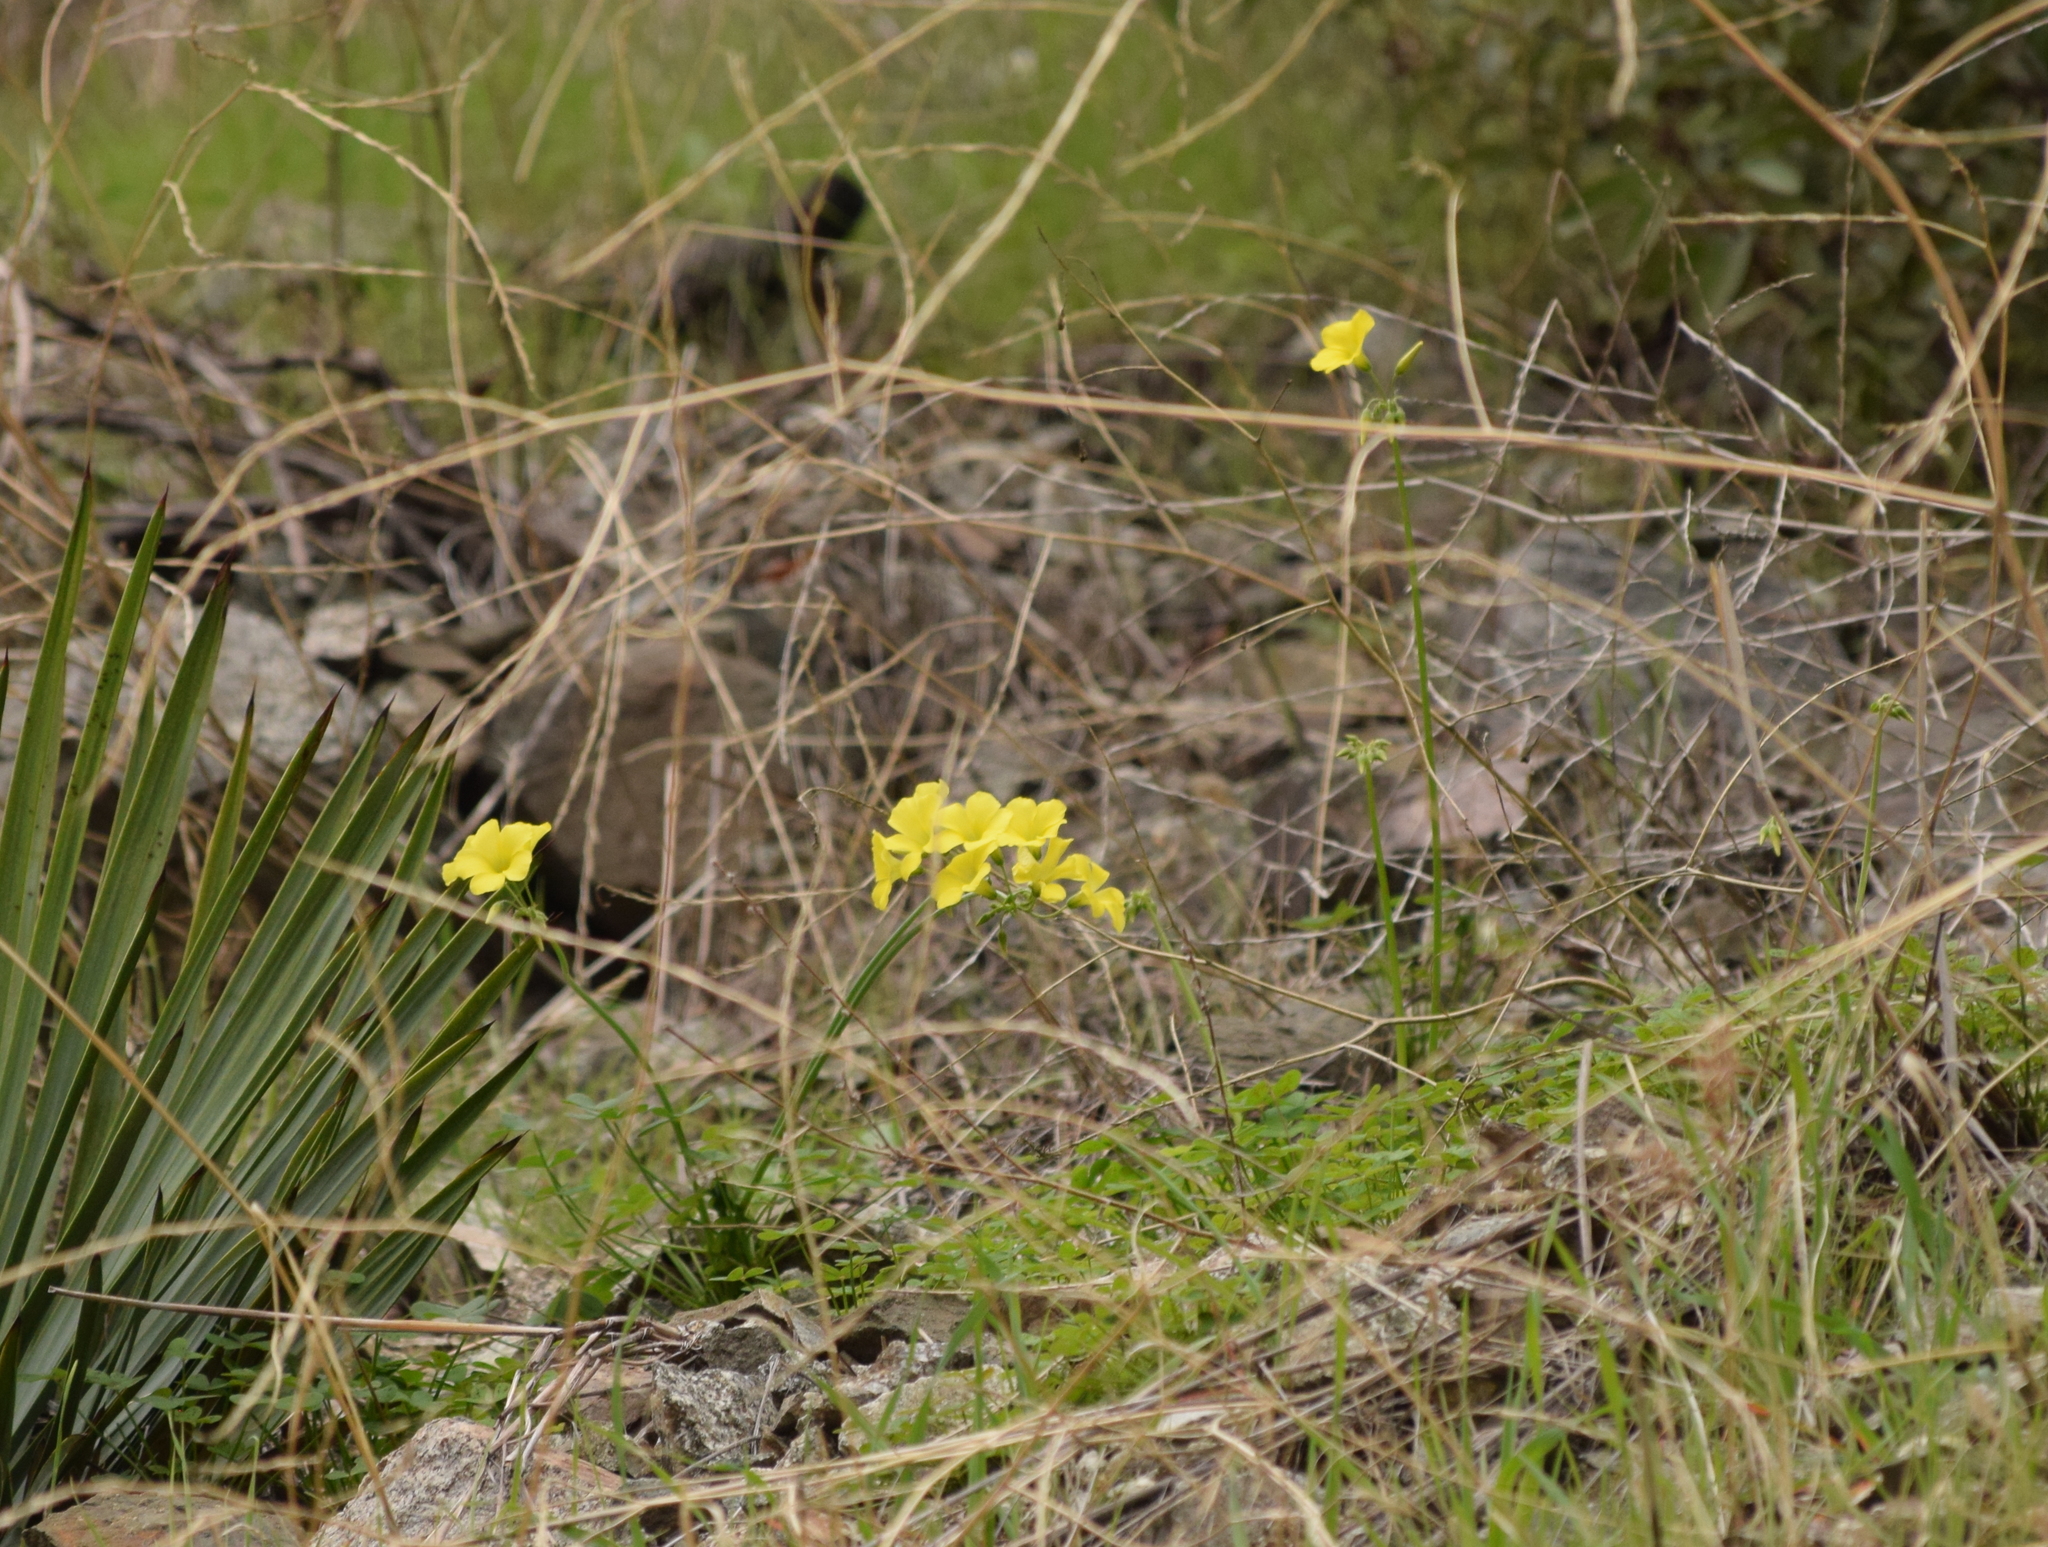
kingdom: Plantae
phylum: Tracheophyta
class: Magnoliopsida
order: Oxalidales
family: Oxalidaceae
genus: Oxalis
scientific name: Oxalis pes-caprae
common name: Bermuda-buttercup
